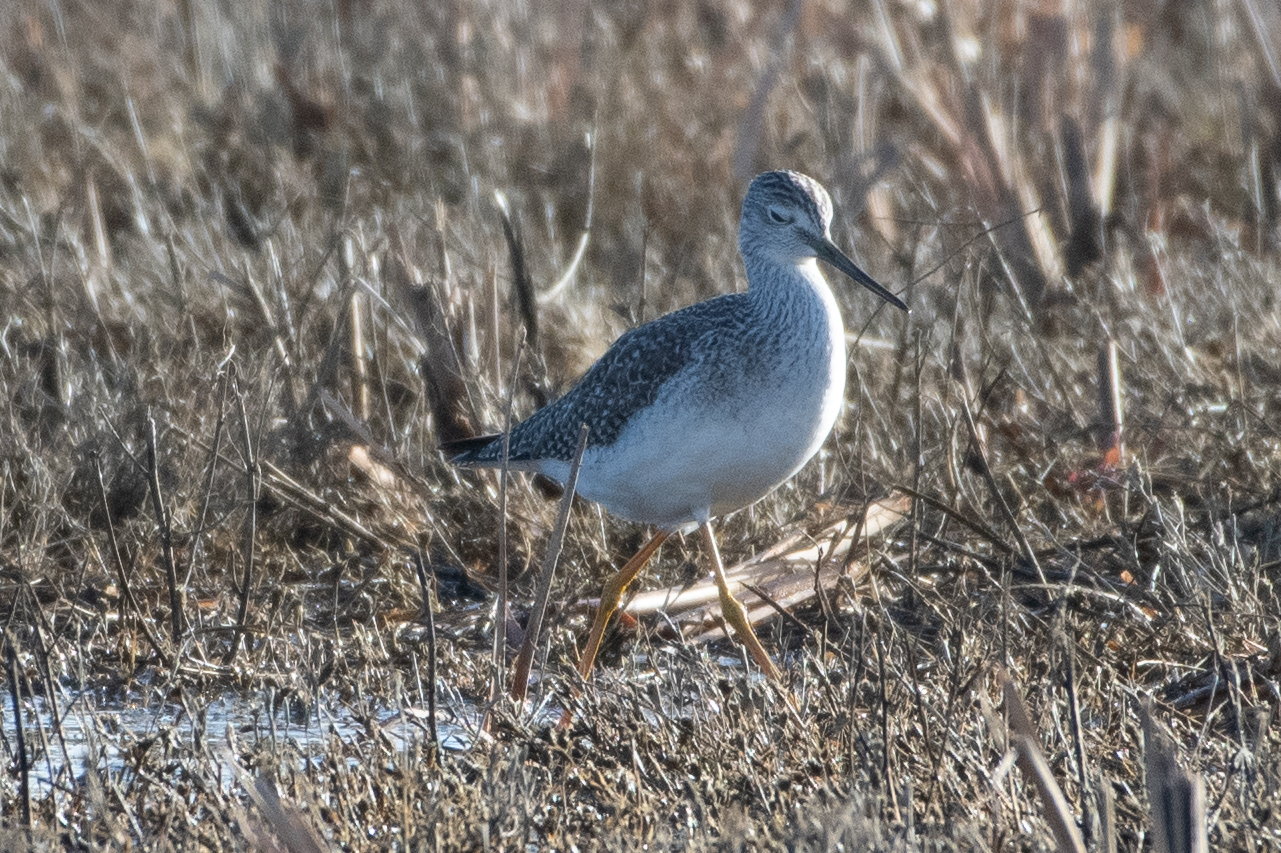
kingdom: Animalia
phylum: Chordata
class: Aves
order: Charadriiformes
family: Scolopacidae
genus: Tringa
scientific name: Tringa melanoleuca
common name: Greater yellowlegs
